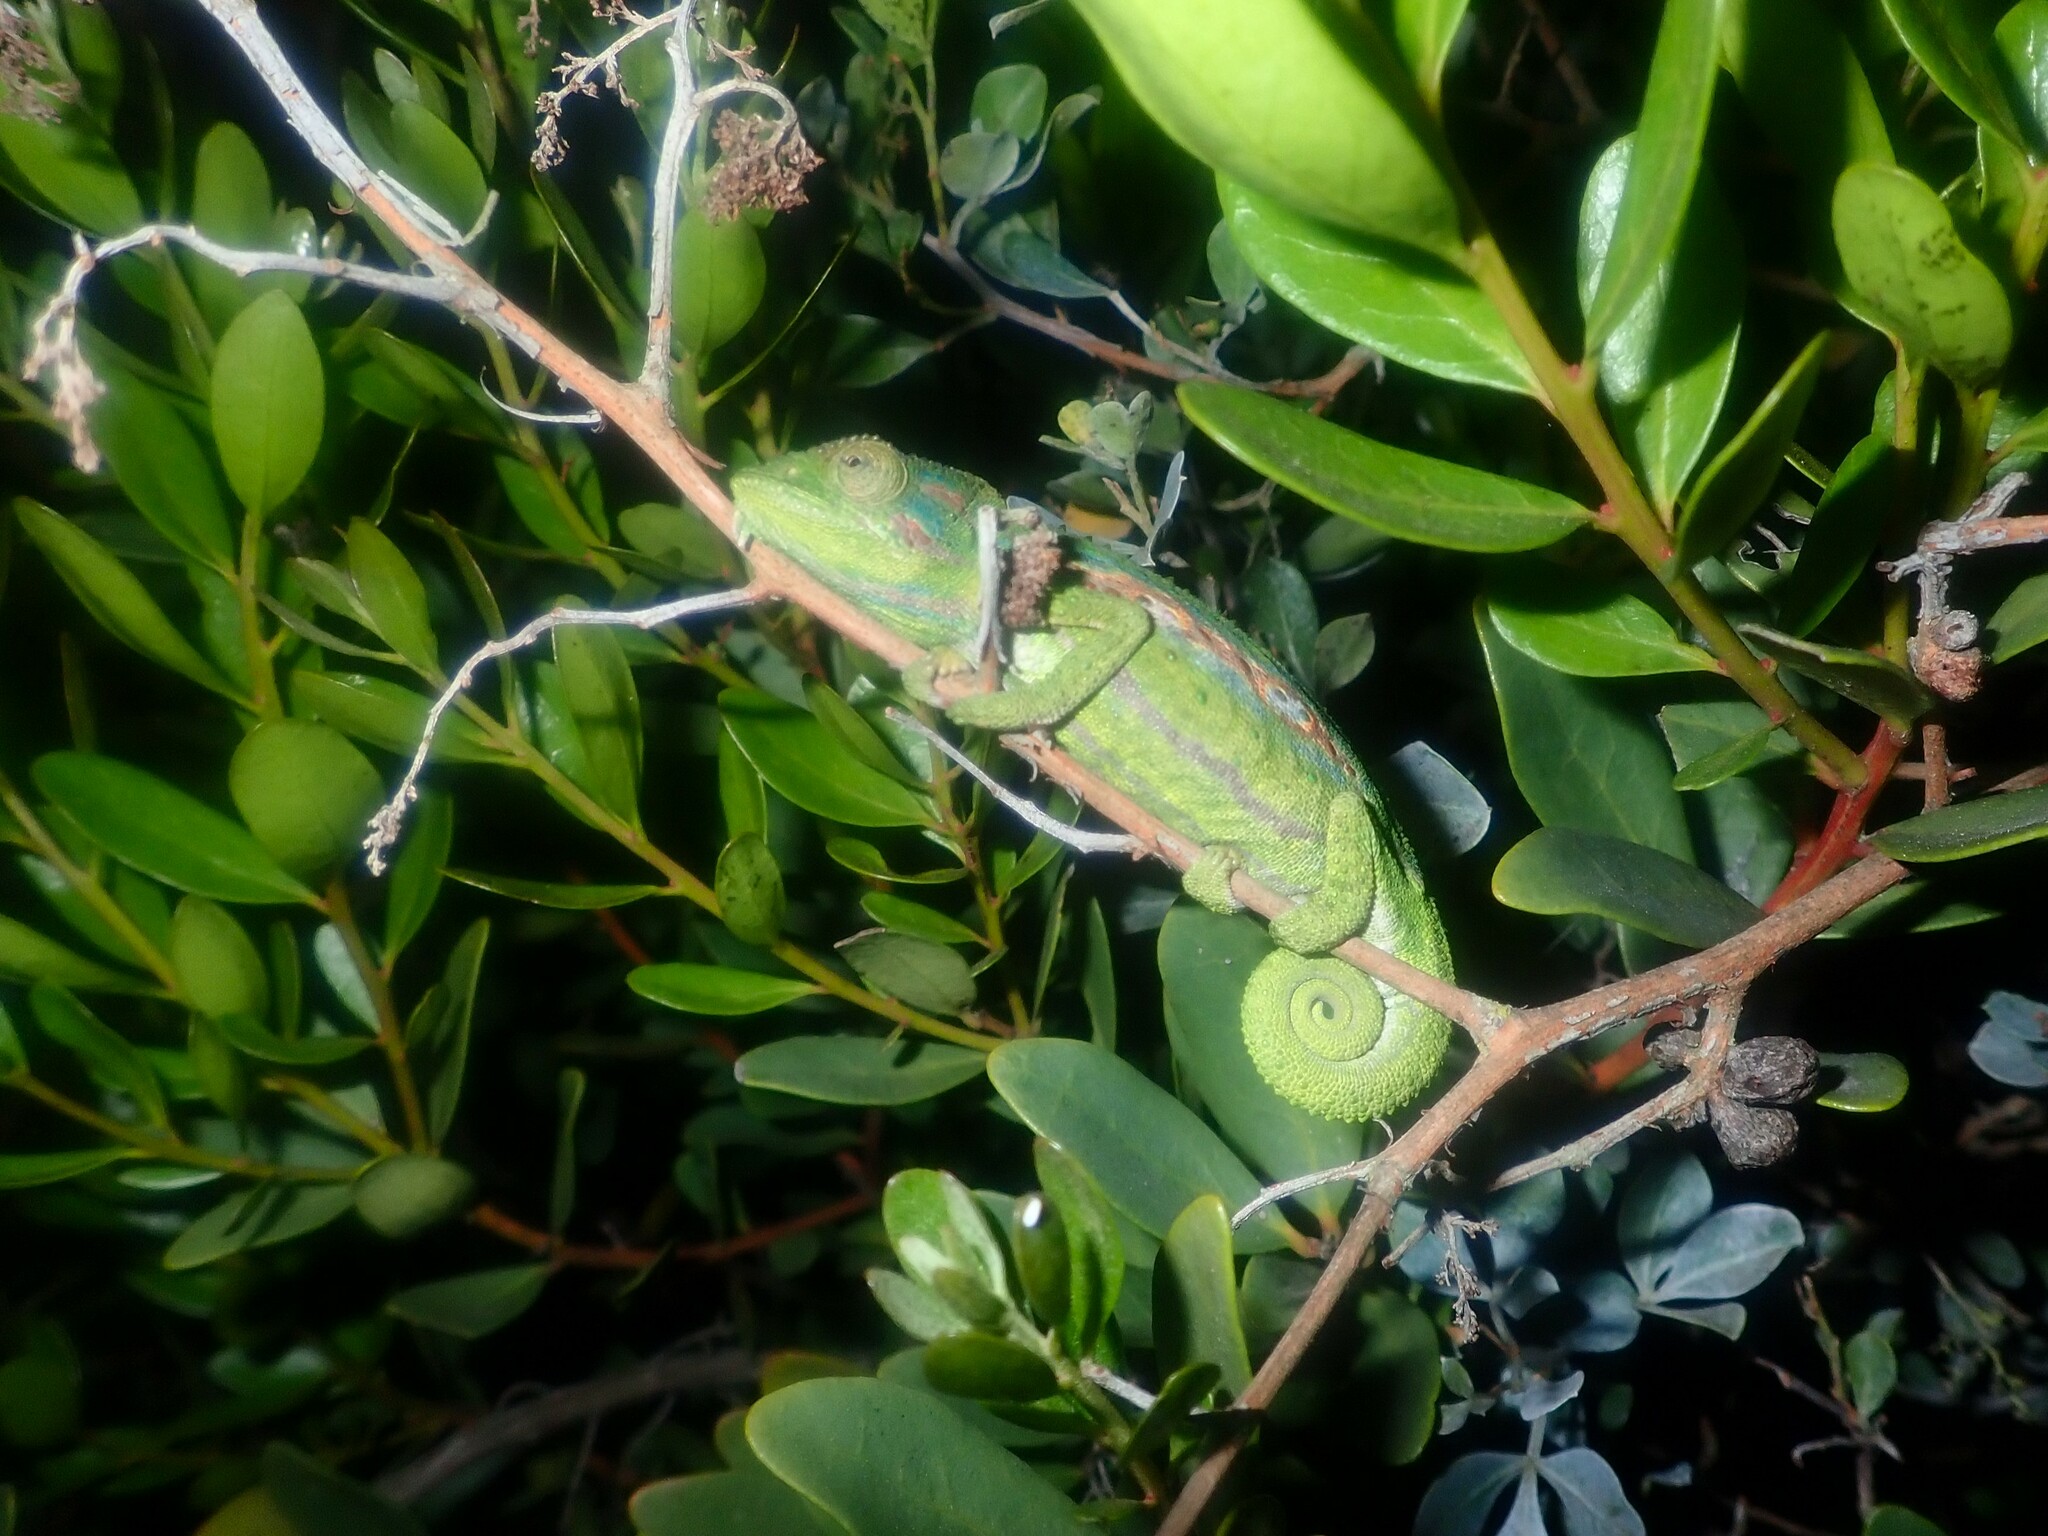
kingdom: Animalia
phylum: Chordata
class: Squamata
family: Chamaeleonidae
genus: Bradypodion
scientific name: Bradypodion pumilum
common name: Cape dwarf chameleon
